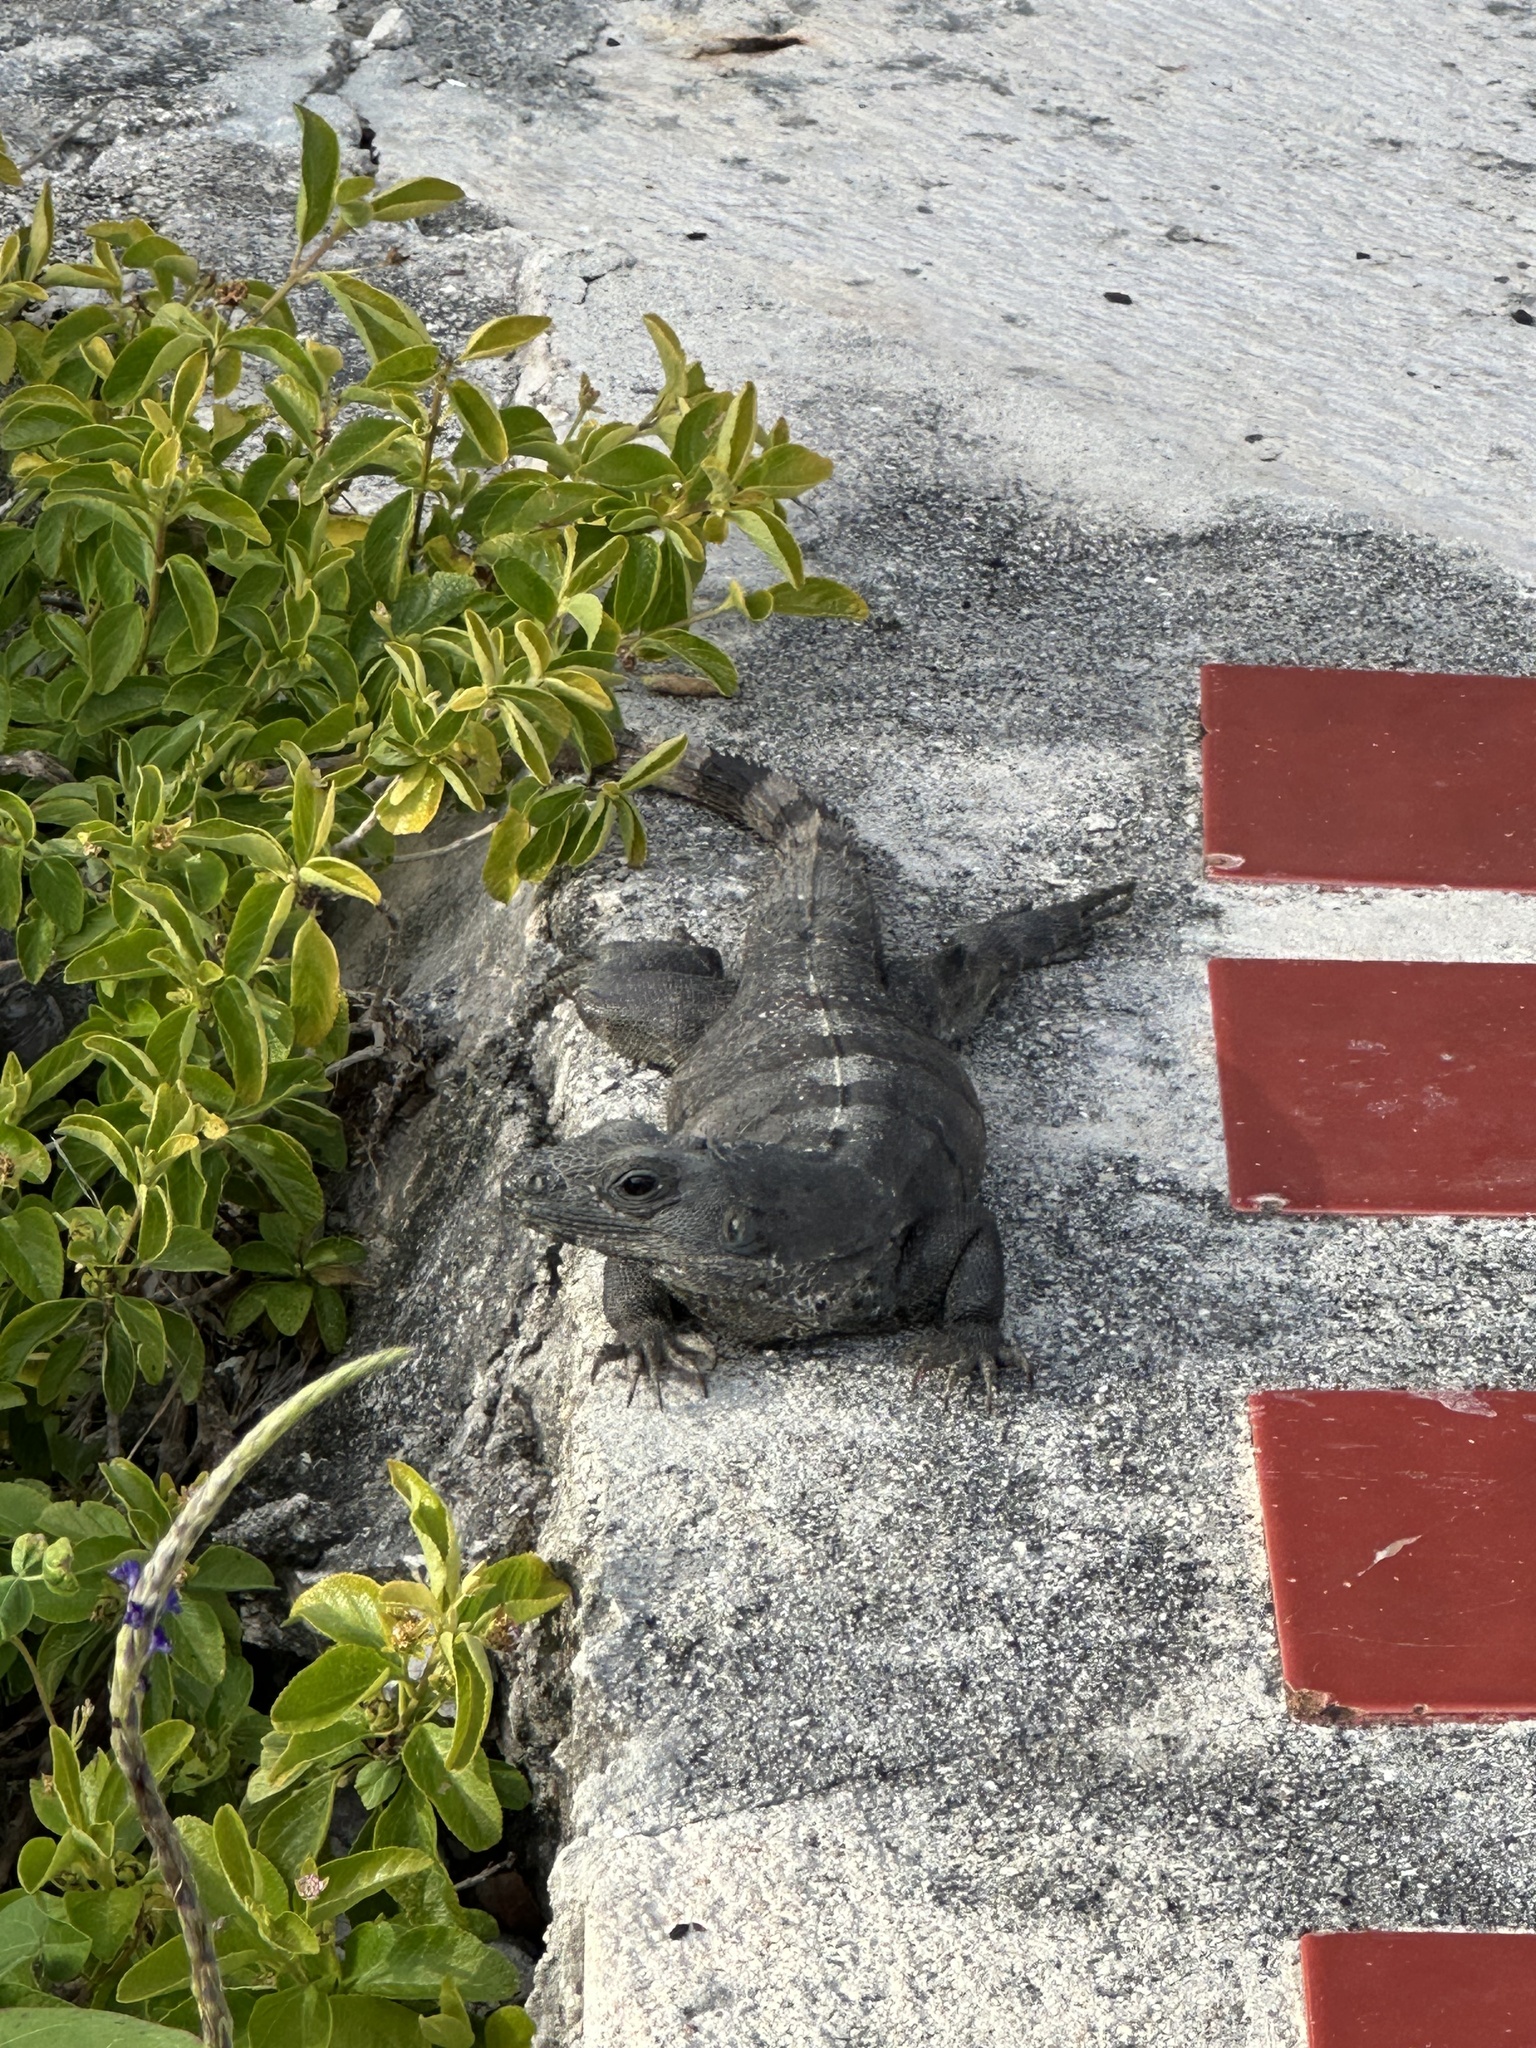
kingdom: Animalia
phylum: Chordata
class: Squamata
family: Iguanidae
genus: Ctenosaura
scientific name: Ctenosaura similis
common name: Black spiny-tailed iguana
